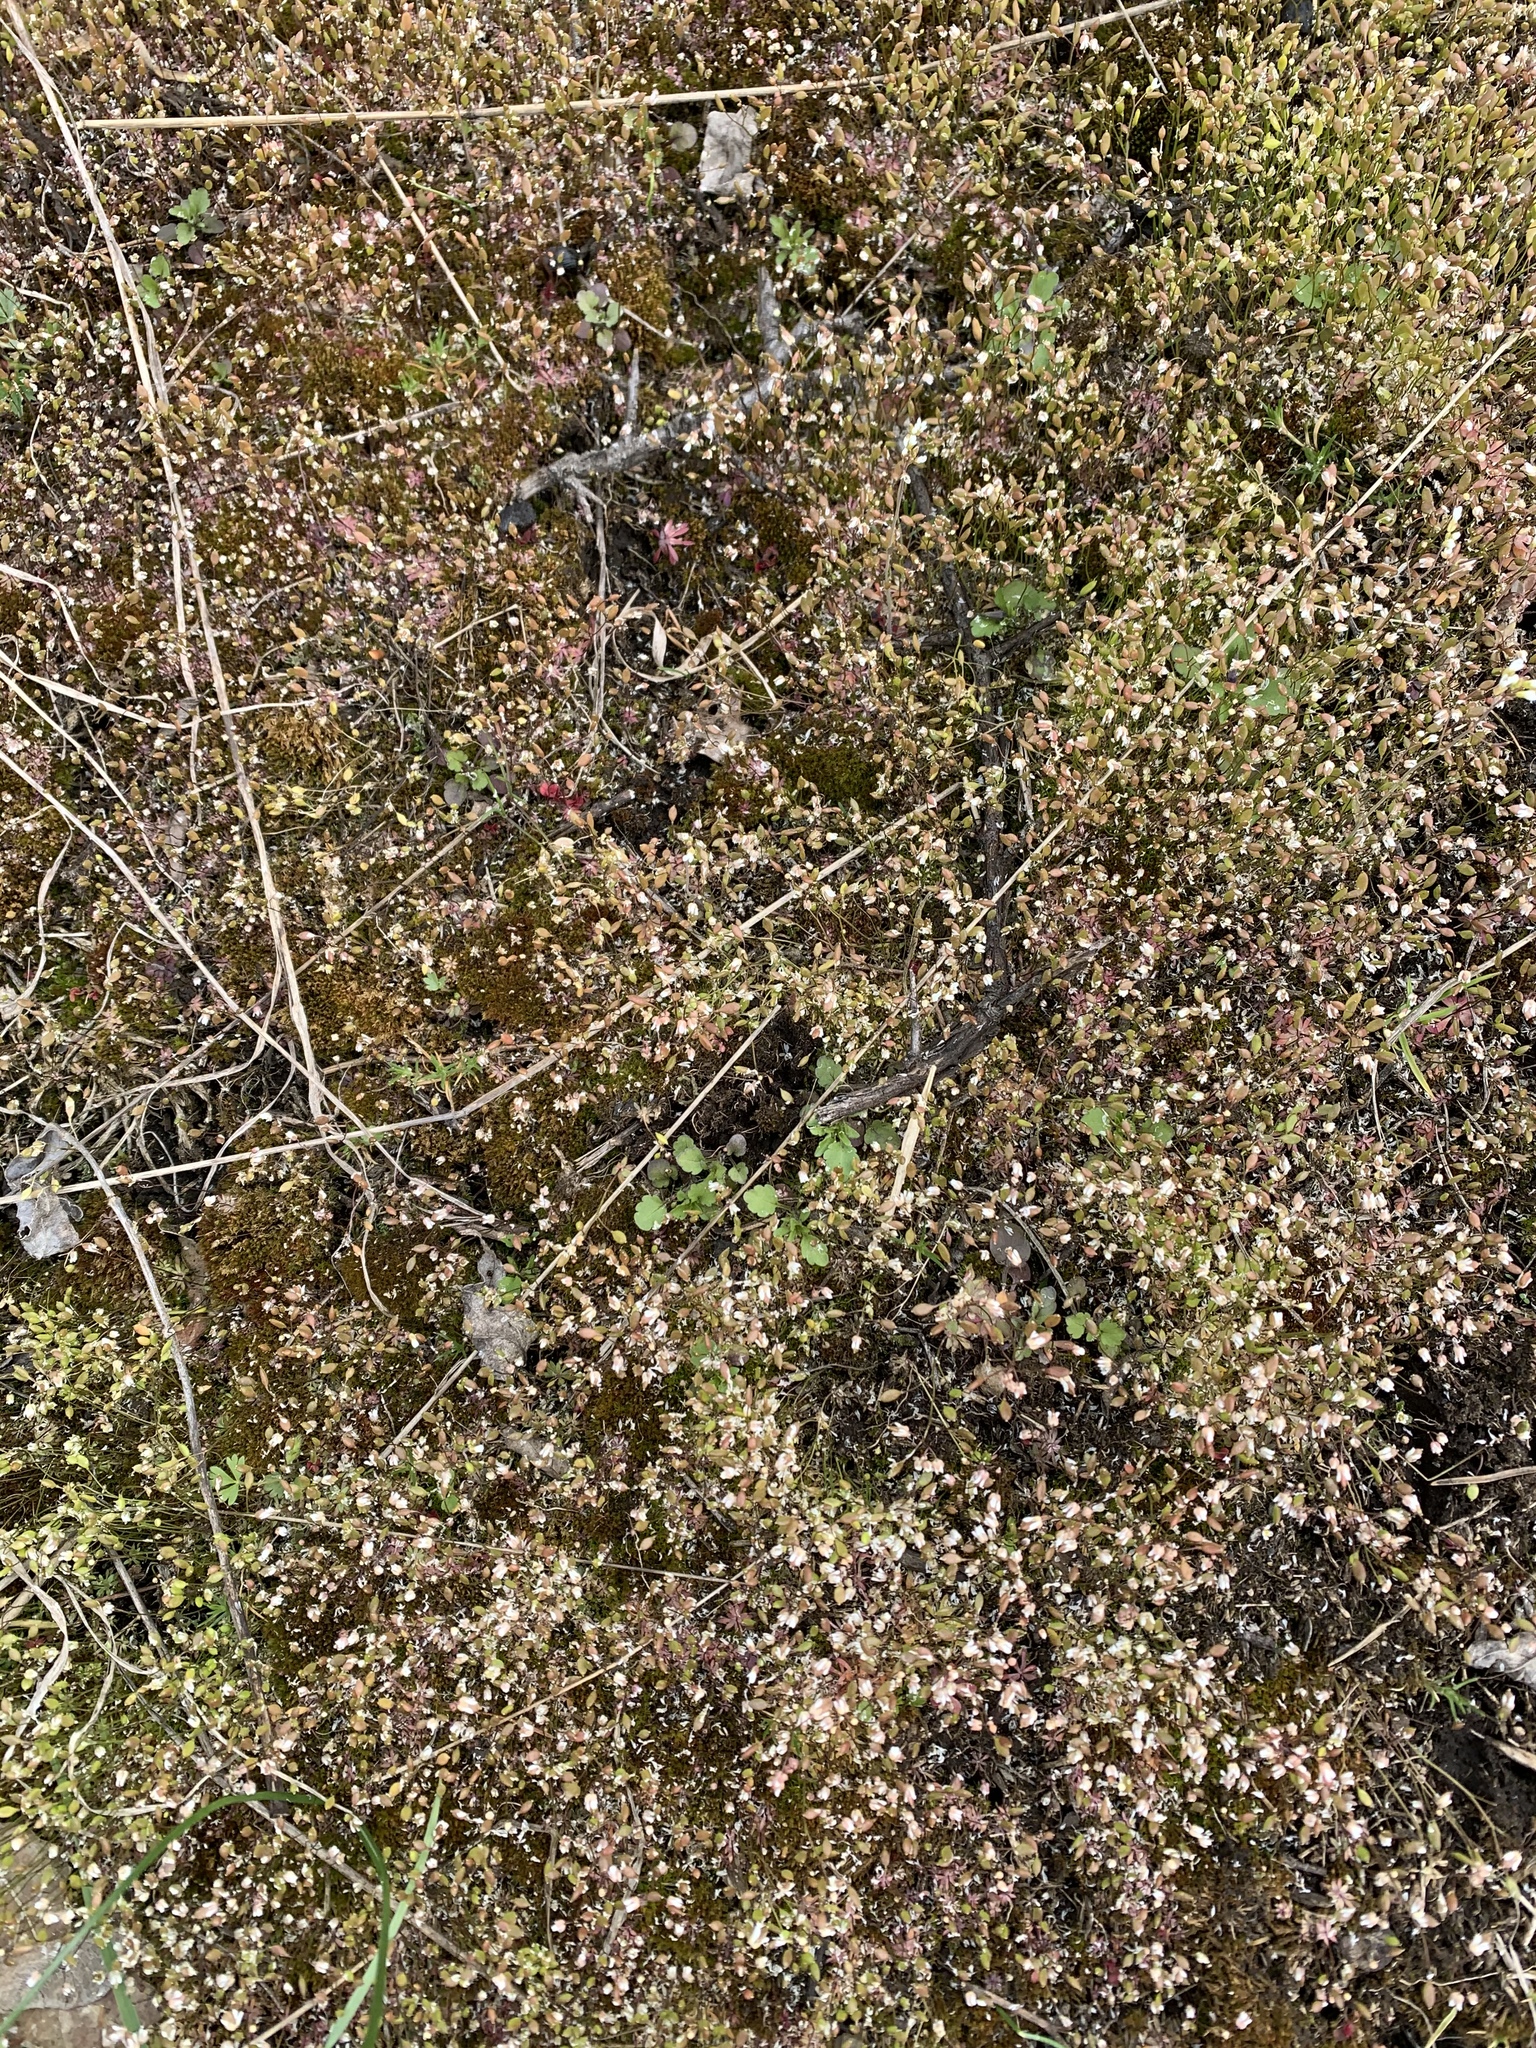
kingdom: Plantae
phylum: Tracheophyta
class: Magnoliopsida
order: Brassicales
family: Brassicaceae
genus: Draba
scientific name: Draba verna
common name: Spring draba
